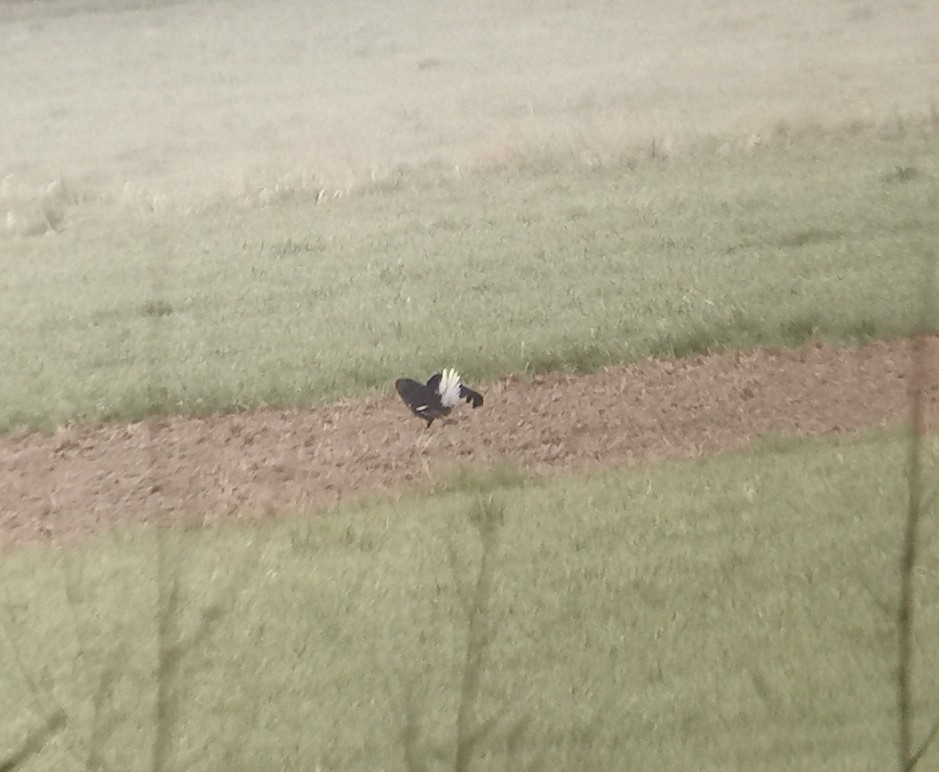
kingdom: Animalia
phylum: Chordata
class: Aves
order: Galliformes
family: Phasianidae
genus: Lyrurus
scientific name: Lyrurus tetrix
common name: Black grouse
